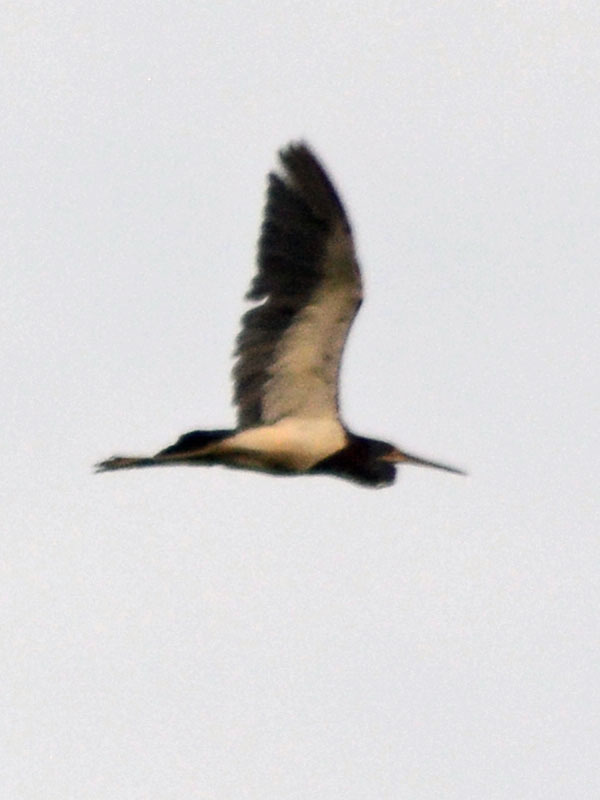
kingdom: Animalia
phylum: Chordata
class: Aves
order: Pelecaniformes
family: Ardeidae
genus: Egretta
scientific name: Egretta tricolor
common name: Tricolored heron
